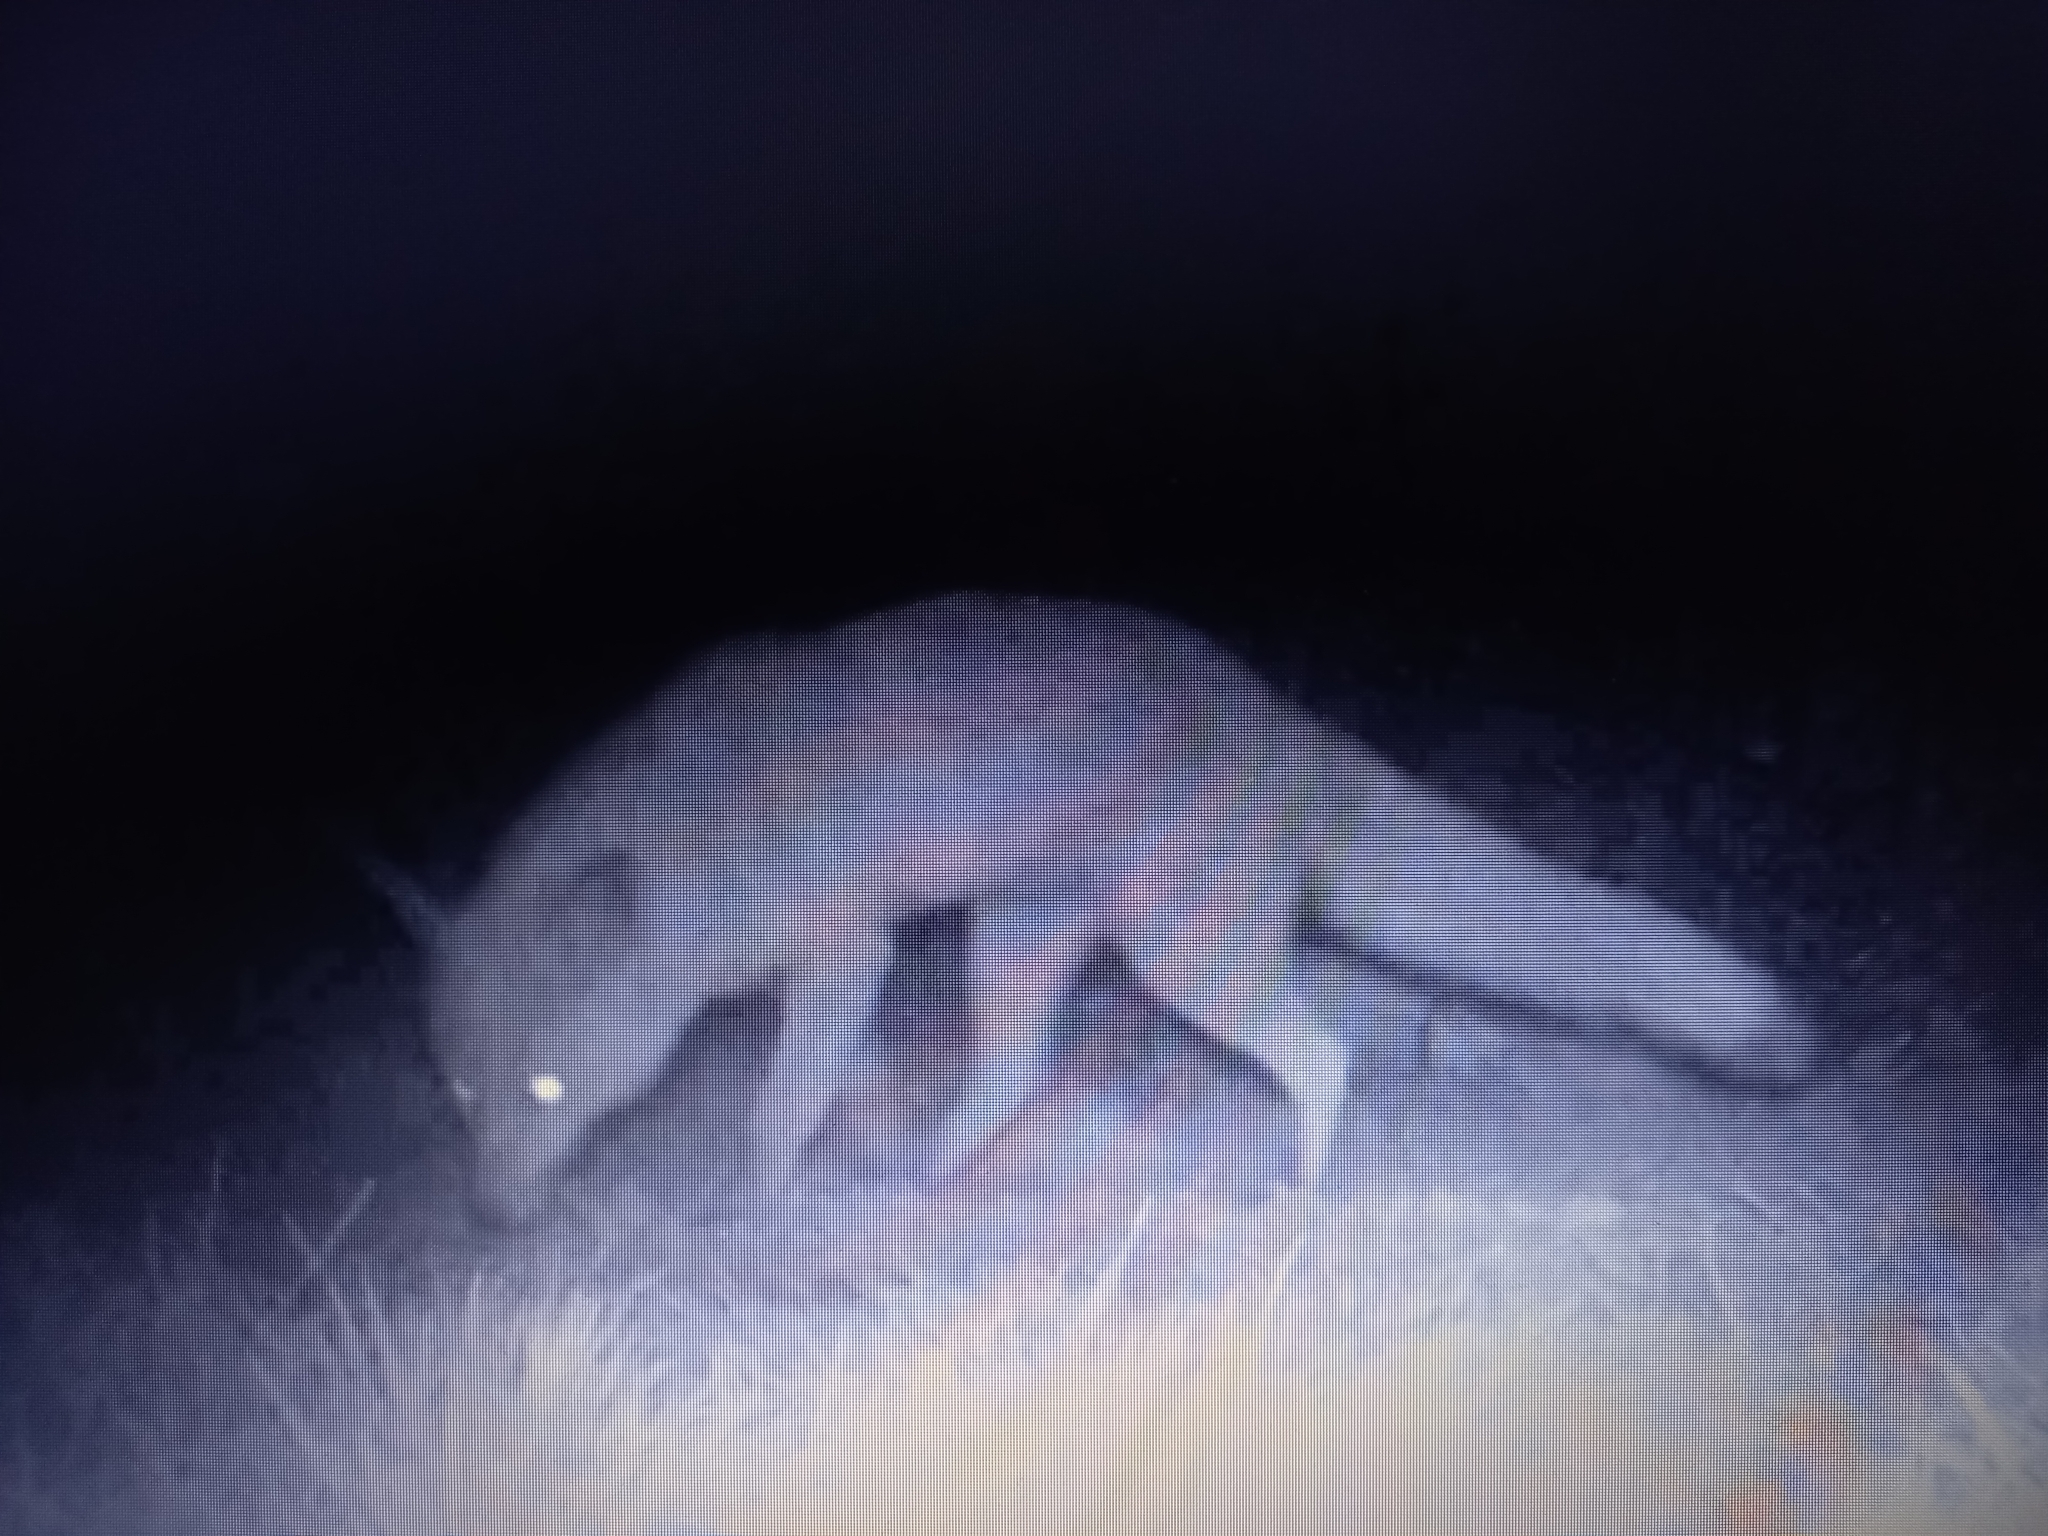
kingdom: Animalia
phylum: Chordata
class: Mammalia
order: Carnivora
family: Canidae
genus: Vulpes
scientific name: Vulpes vulpes
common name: Red fox
